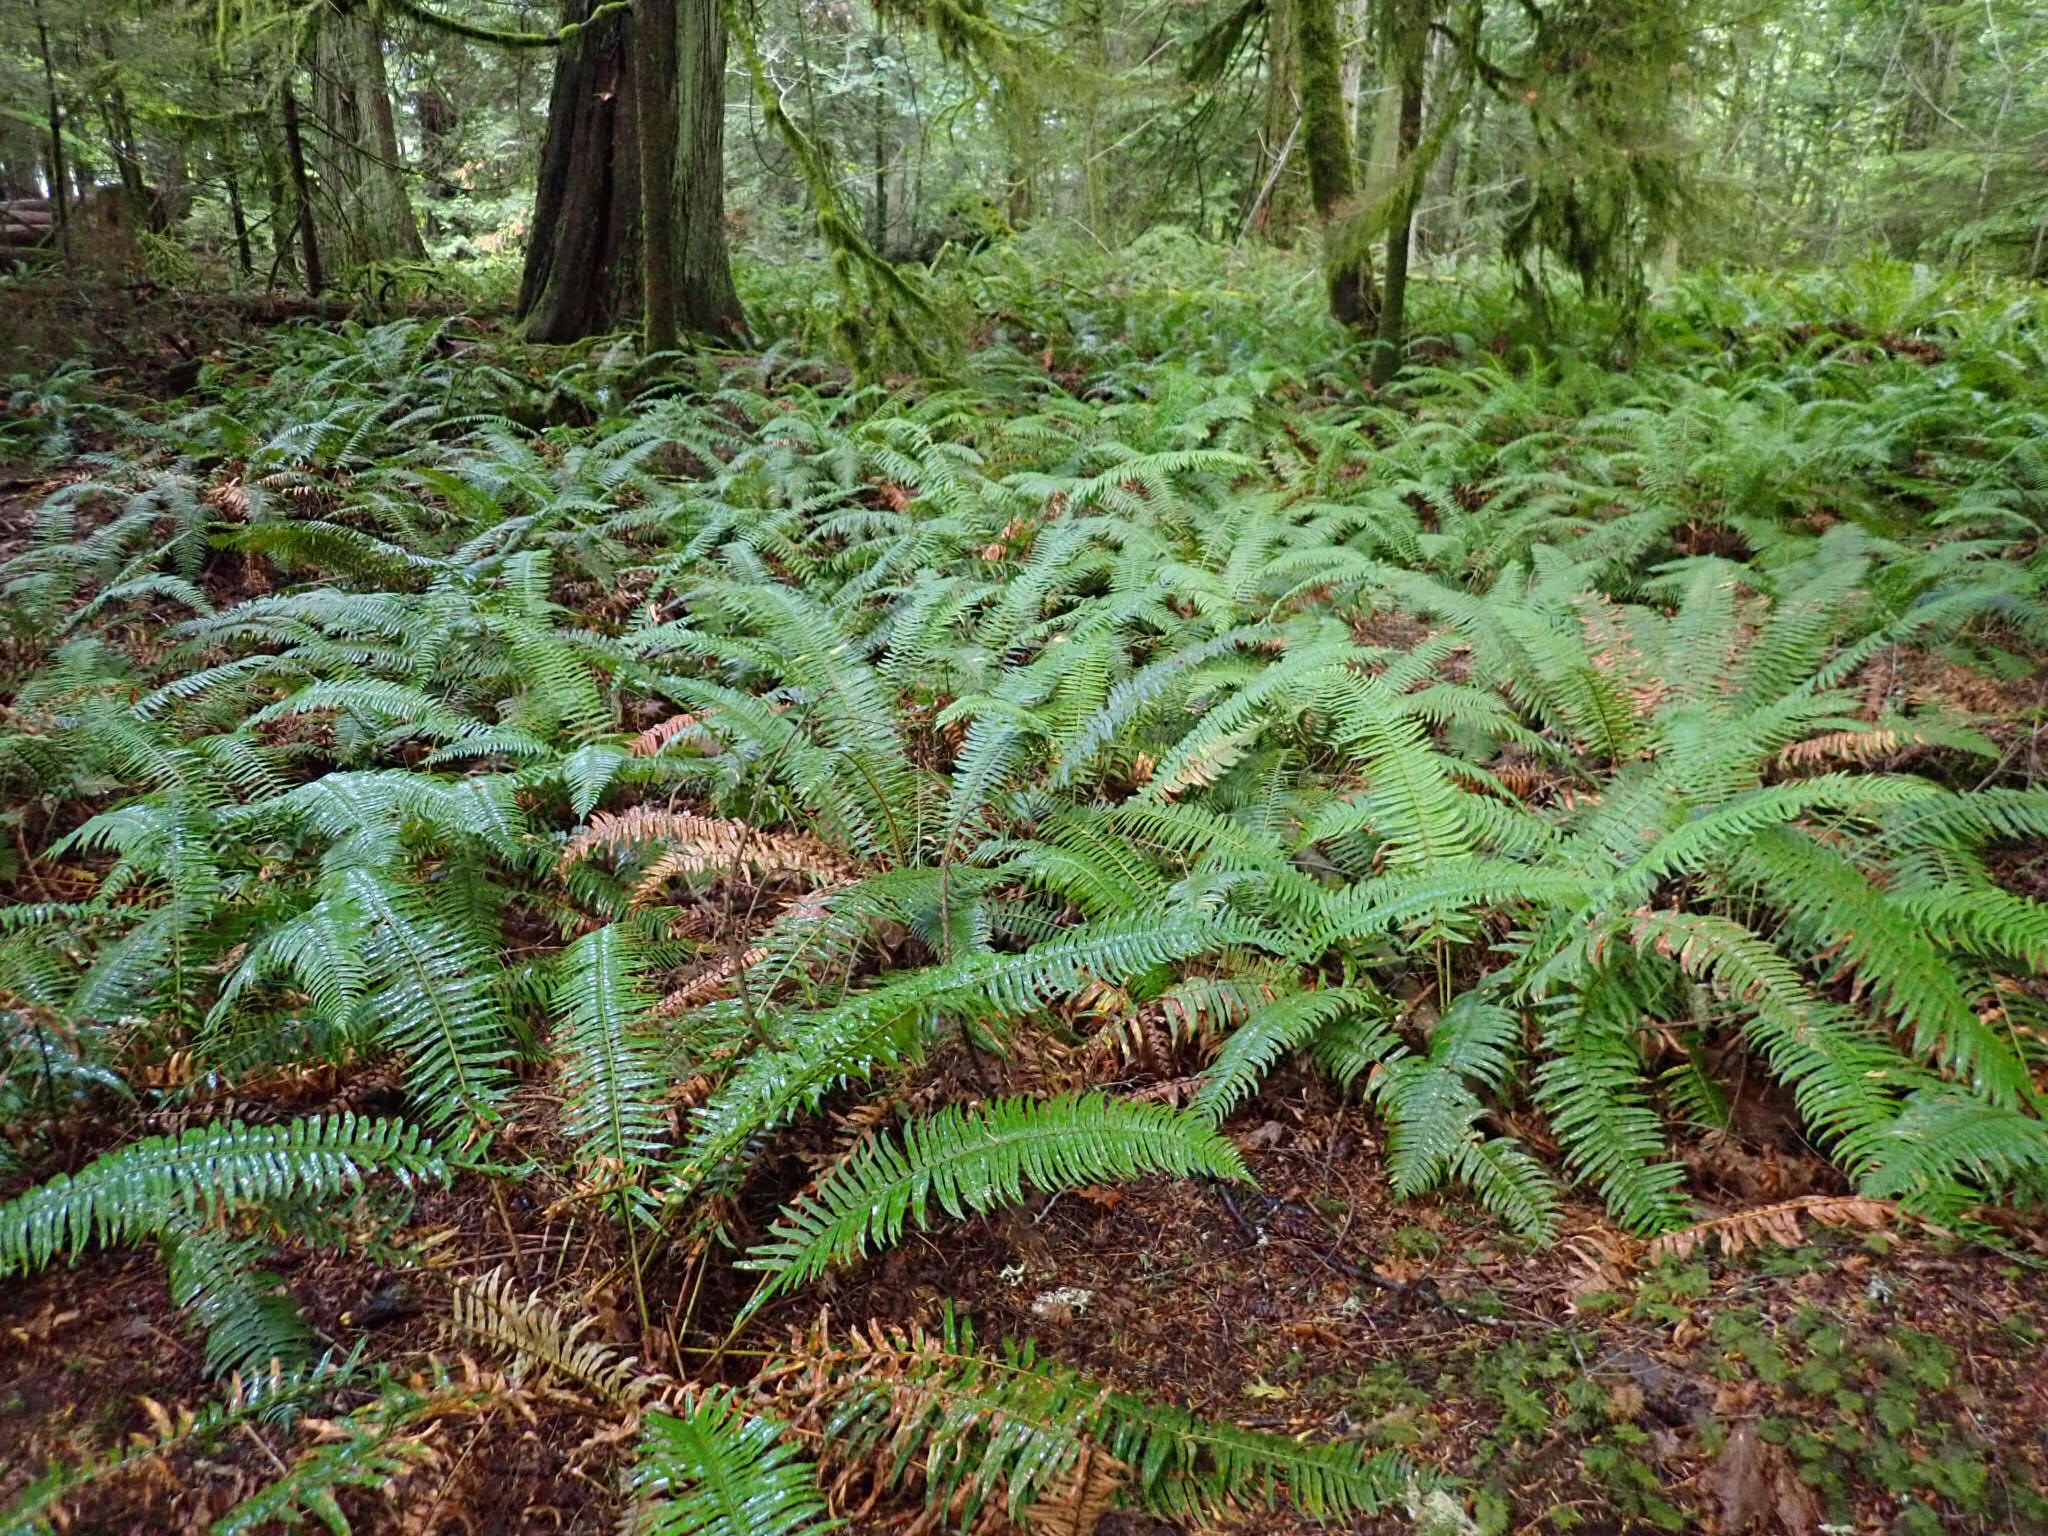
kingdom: Plantae
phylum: Tracheophyta
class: Polypodiopsida
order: Polypodiales
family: Dryopteridaceae
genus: Polystichum
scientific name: Polystichum munitum
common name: Western sword-fern
